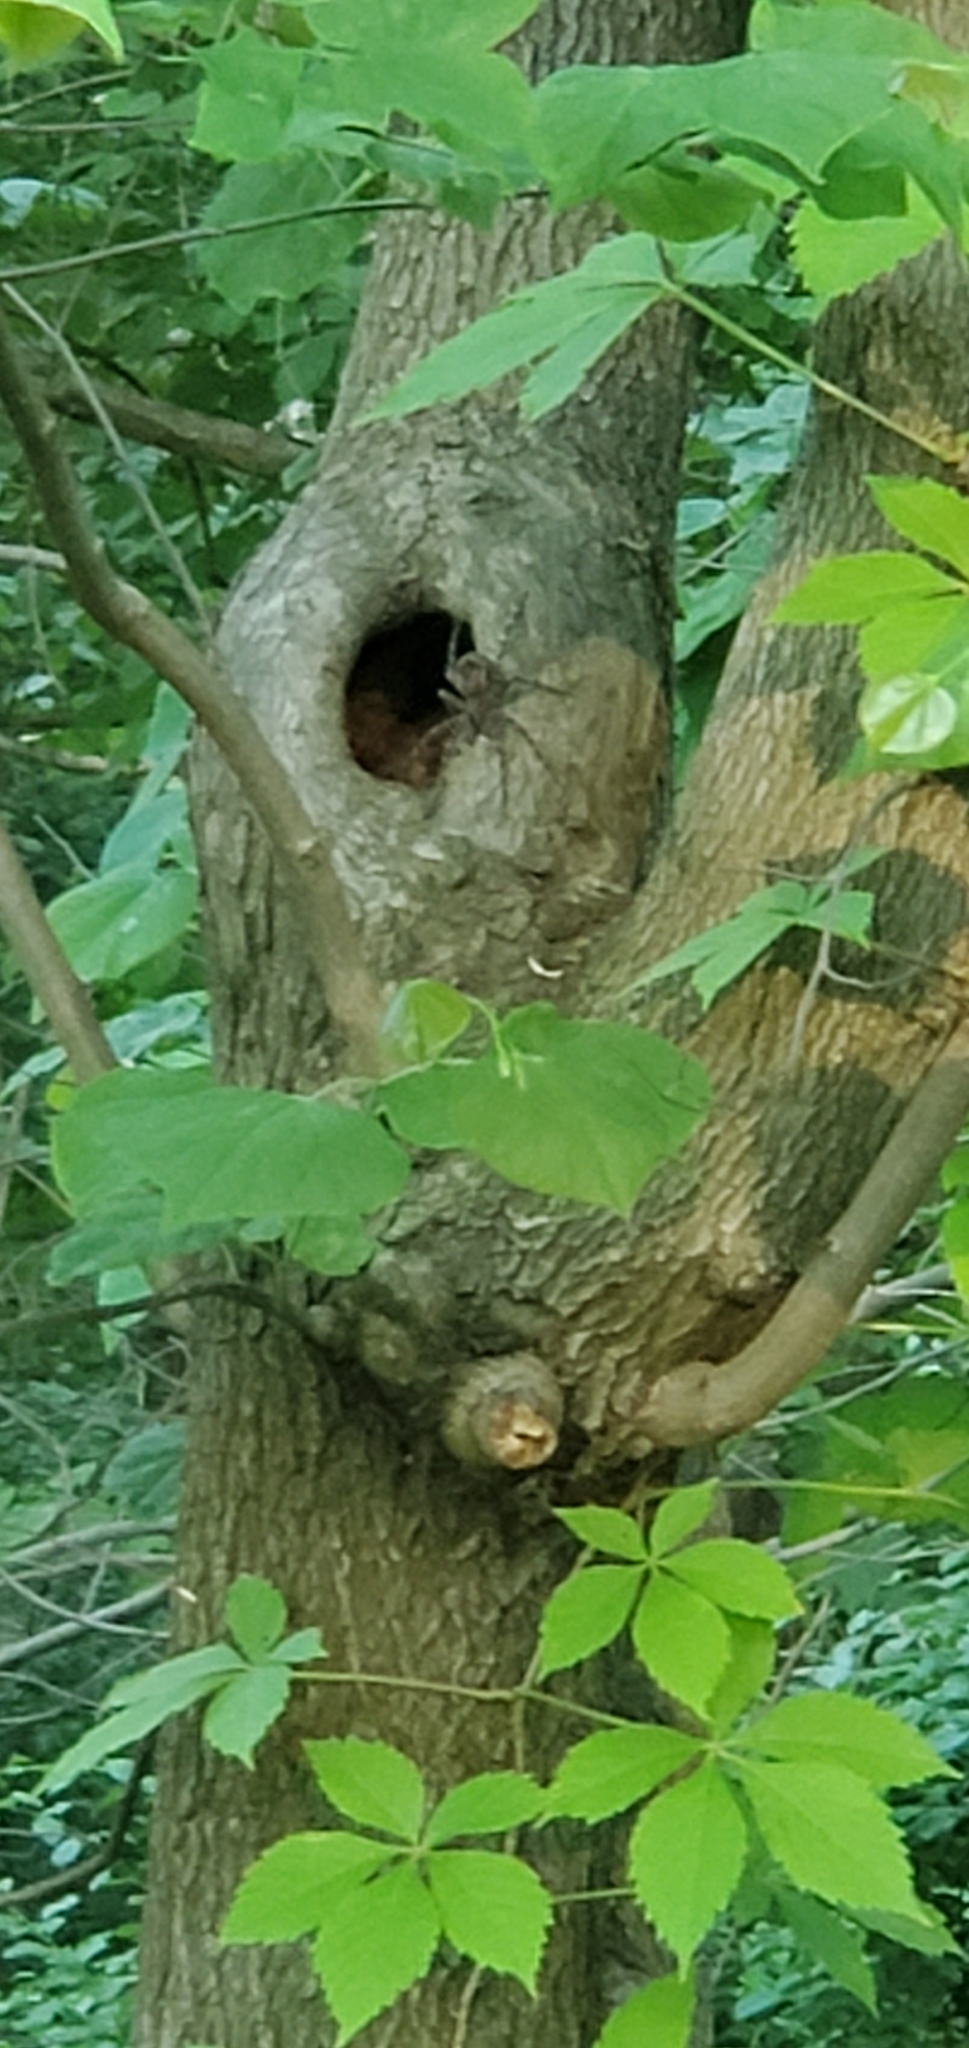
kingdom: Animalia
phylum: Arthropoda
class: Arachnida
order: Araneae
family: Pisauridae
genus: Dolomedes
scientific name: Dolomedes tenebrosus
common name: Dark fishing spider
